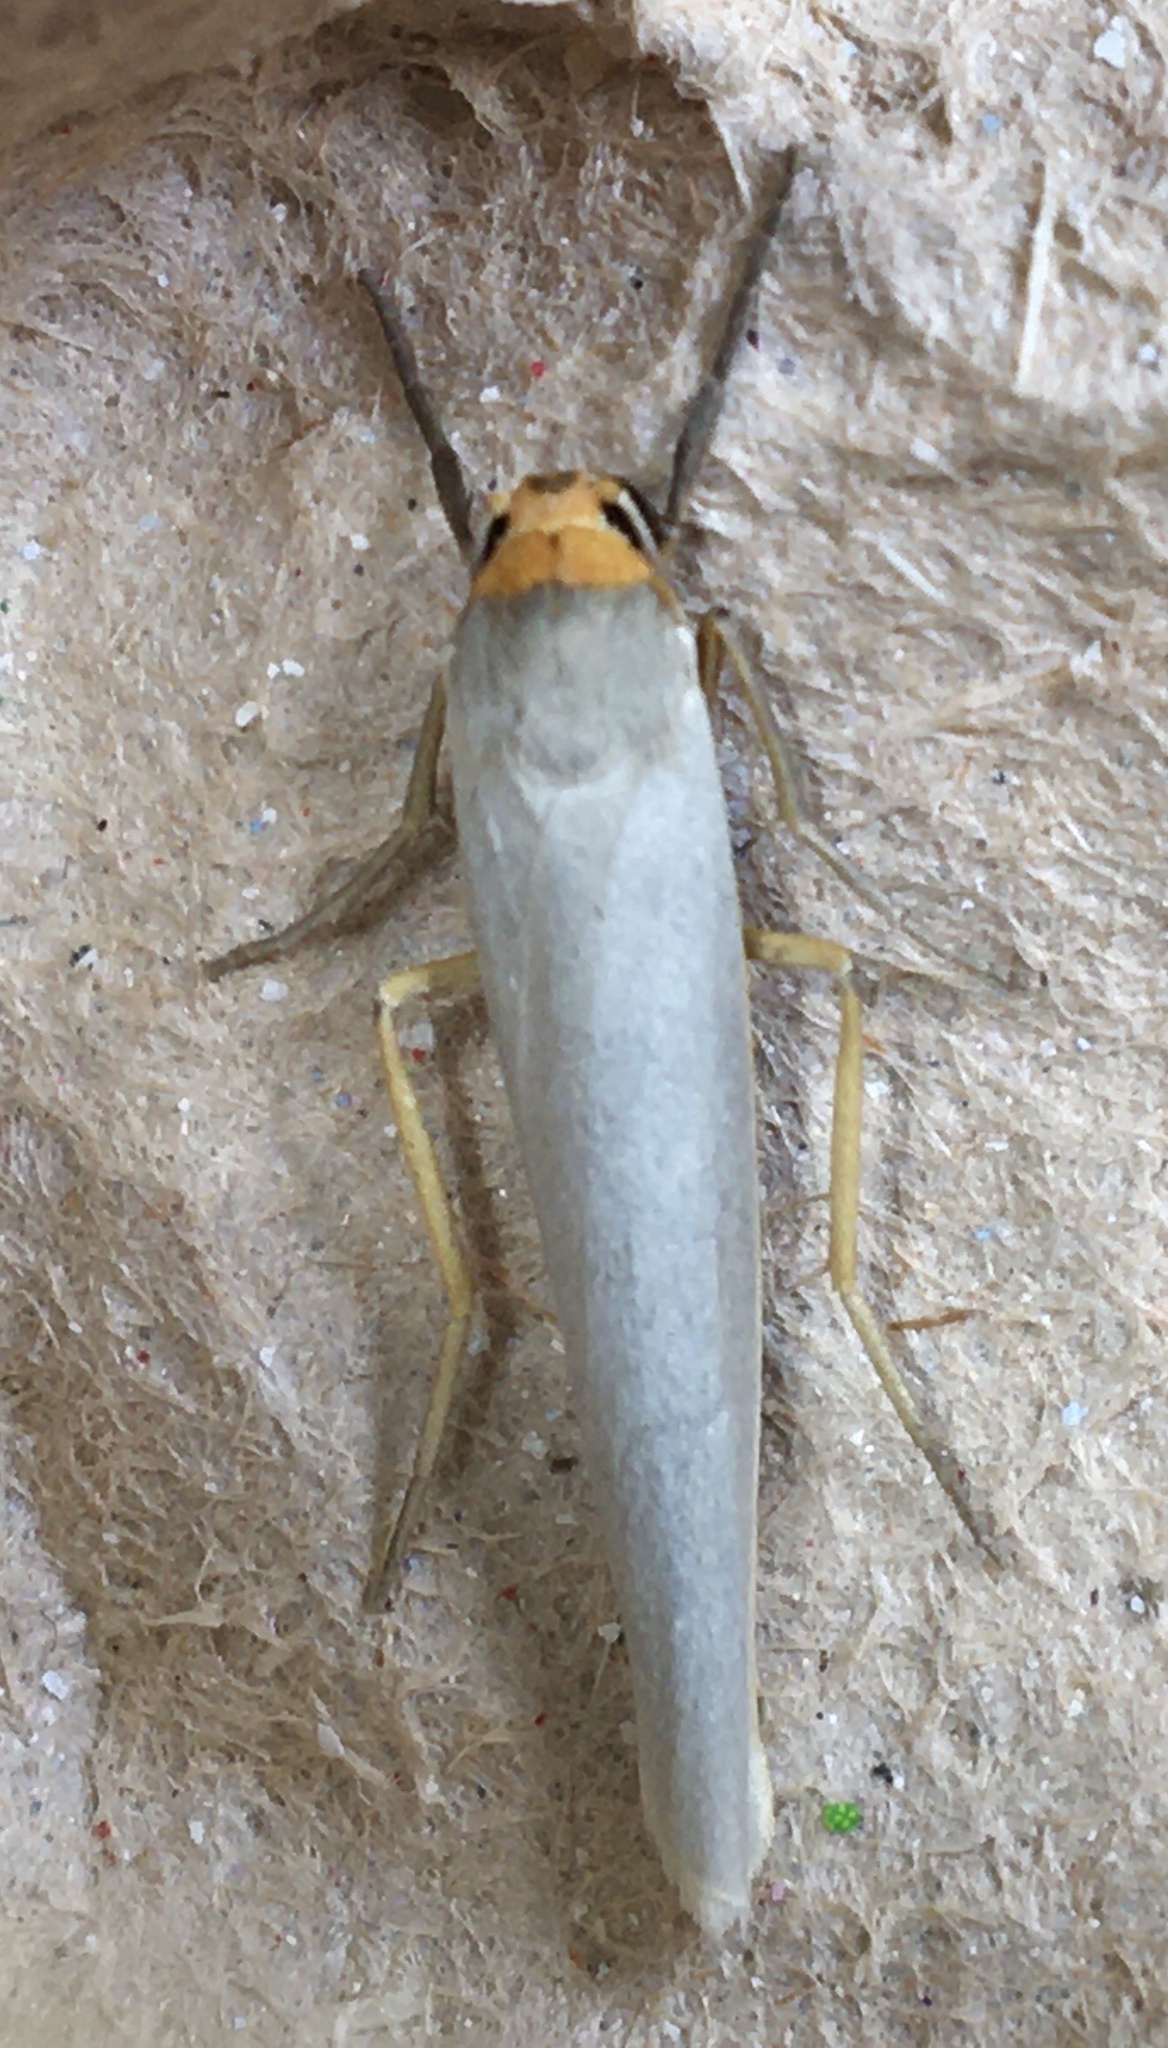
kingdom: Animalia
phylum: Arthropoda
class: Insecta
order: Lepidoptera
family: Erebidae
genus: Manulea
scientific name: Manulea complana
